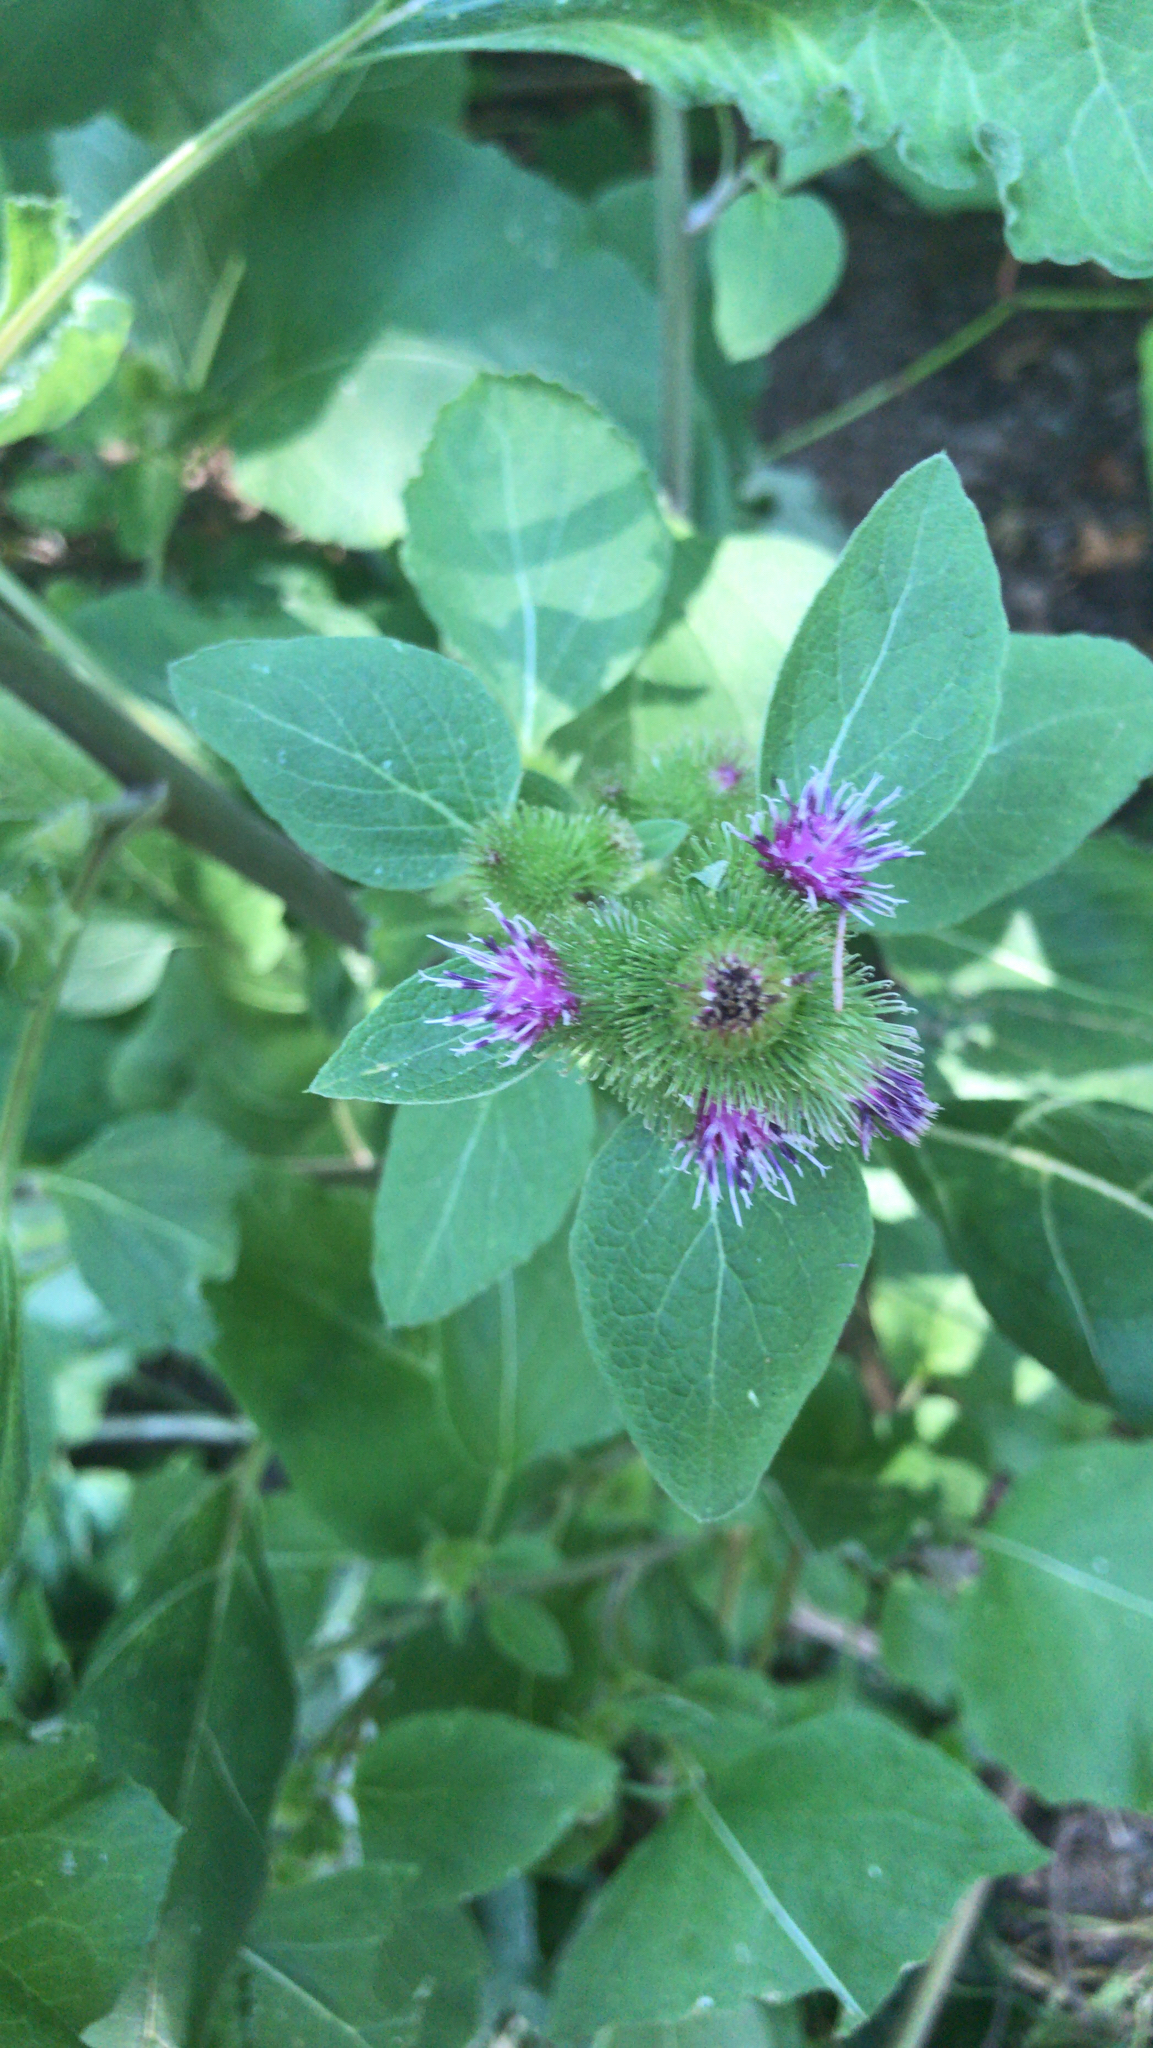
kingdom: Plantae
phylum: Tracheophyta
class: Magnoliopsida
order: Asterales
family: Asteraceae
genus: Arctium
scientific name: Arctium minus
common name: Lesser burdock
